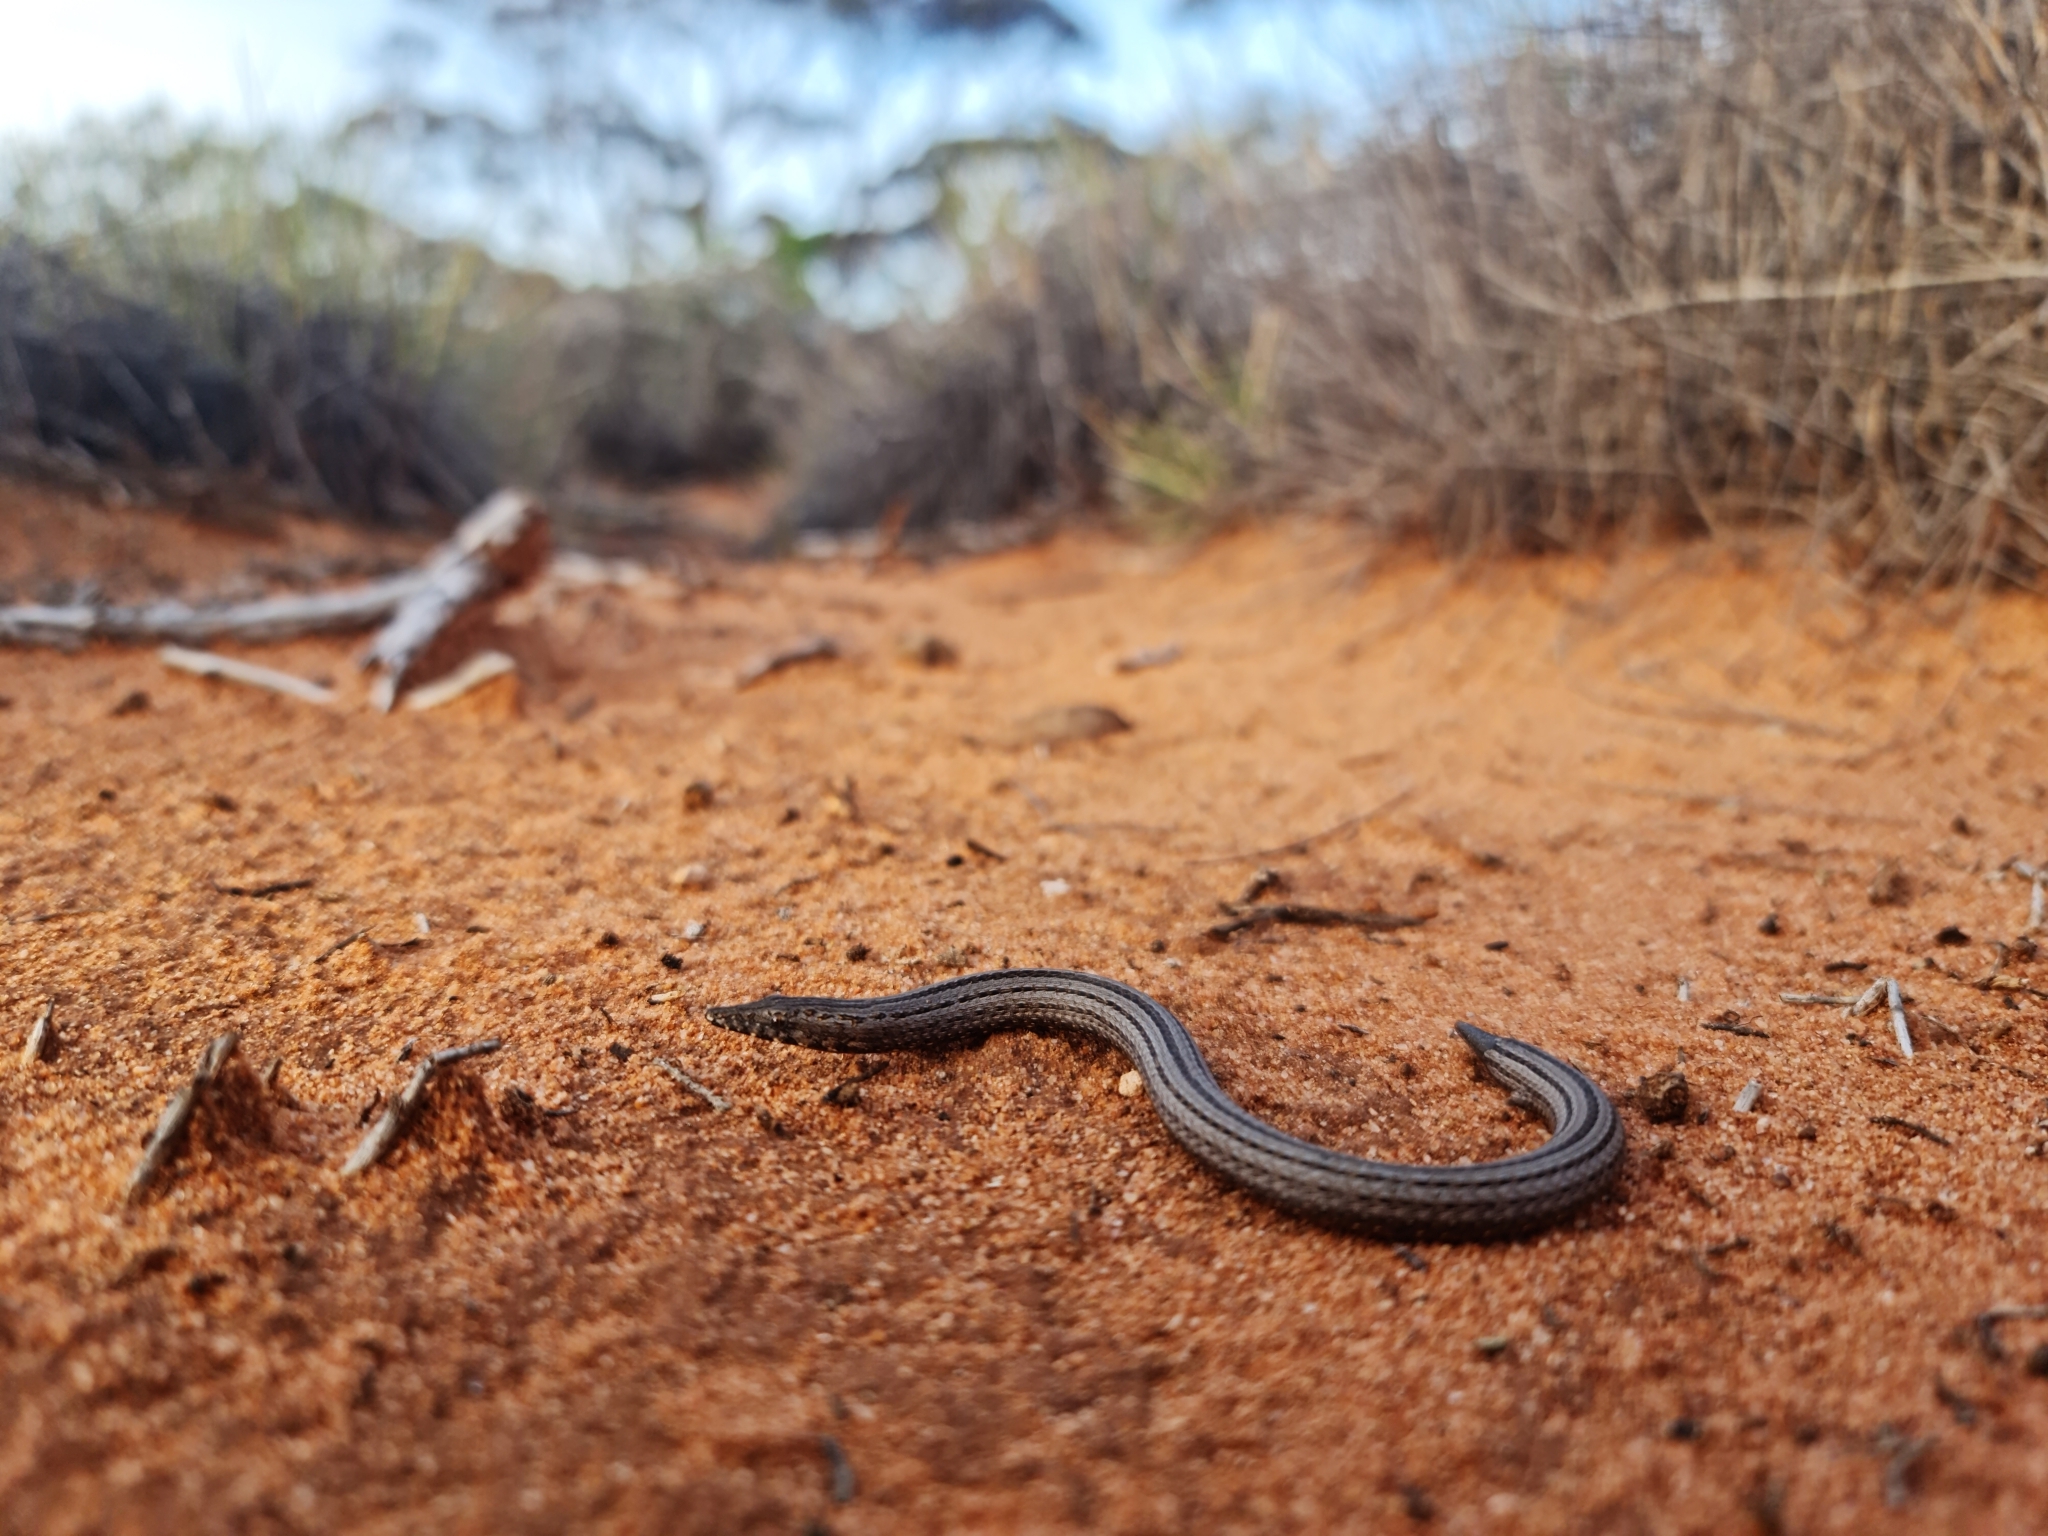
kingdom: Animalia
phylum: Chordata
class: Squamata
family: Pygopodidae
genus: Lialis
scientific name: Lialis burtonis
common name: Burton's legless lizard
